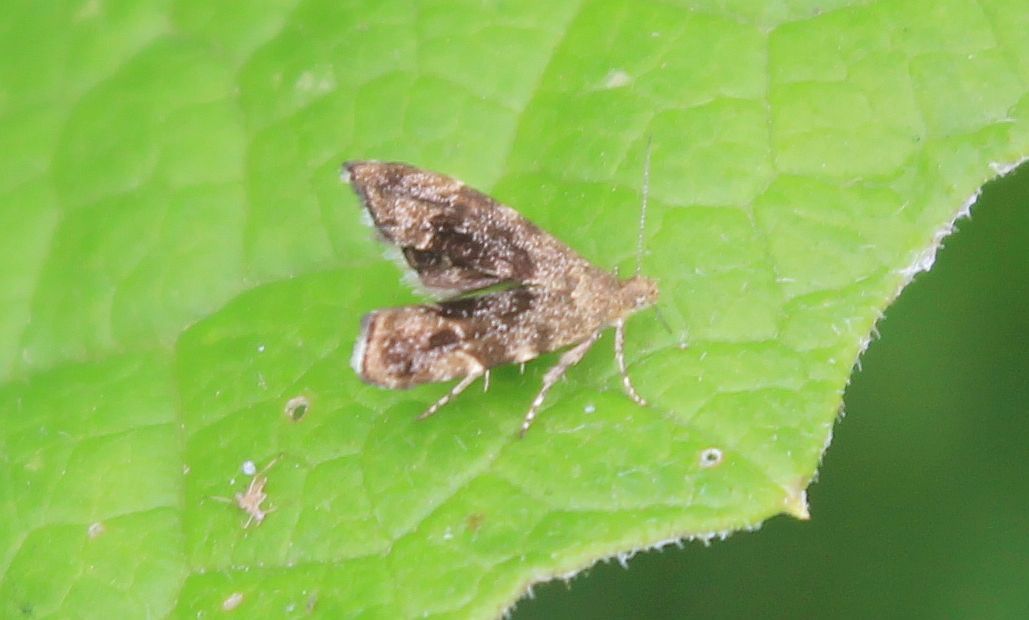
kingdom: Animalia
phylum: Arthropoda
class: Insecta
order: Lepidoptera
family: Choreutidae
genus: Anthophila
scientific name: Anthophila fabriciana
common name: Nettle-tap
